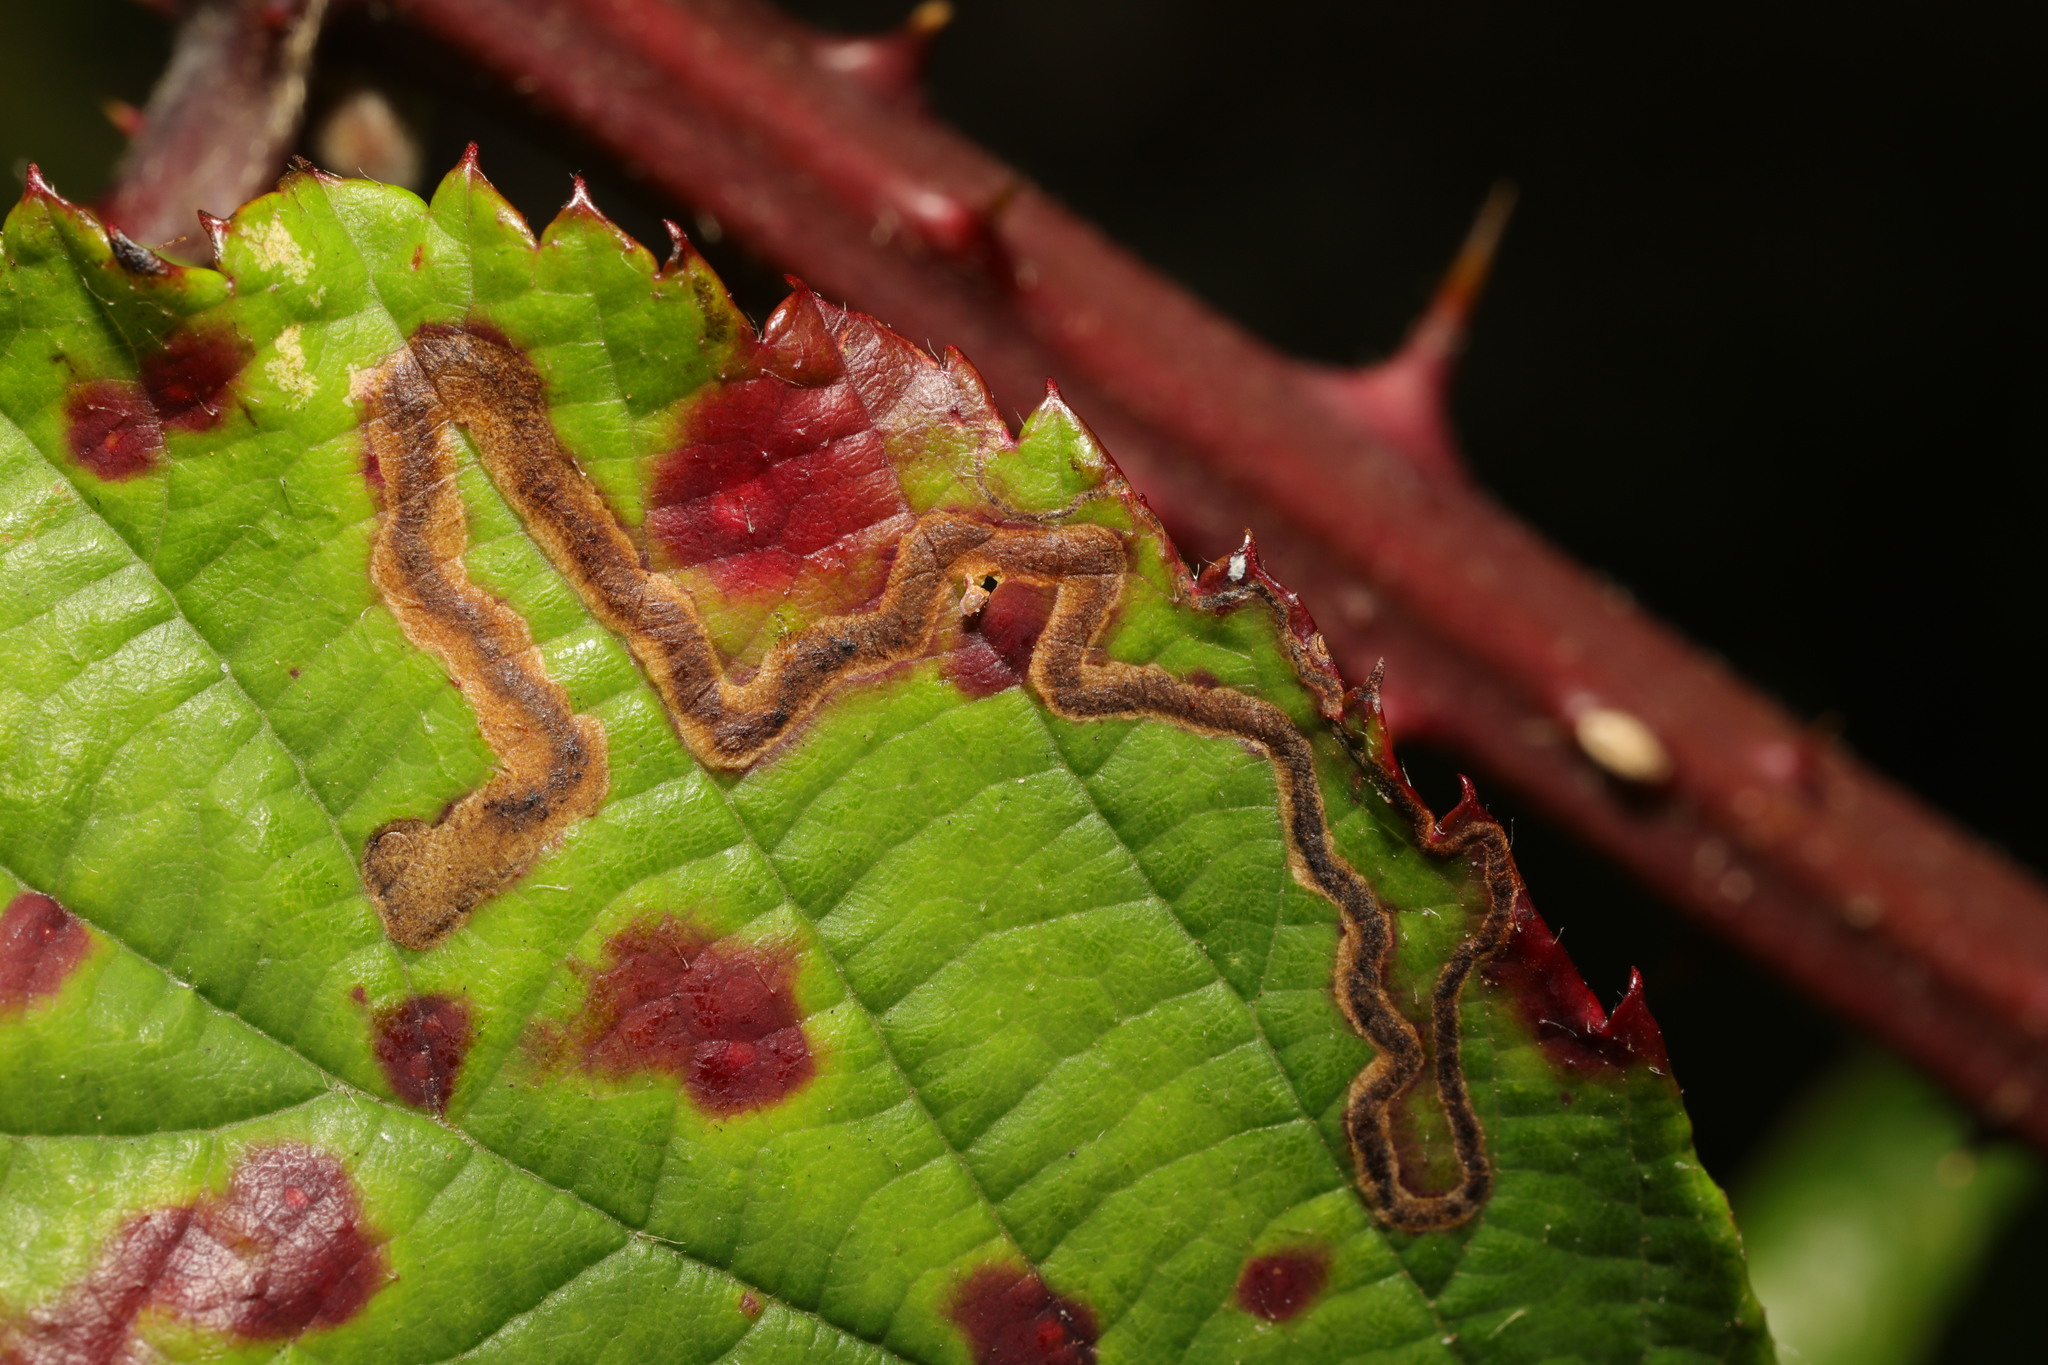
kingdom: Animalia
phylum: Arthropoda
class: Insecta
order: Lepidoptera
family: Nepticulidae
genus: Stigmella
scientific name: Stigmella aurella
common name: Golden pigmy
